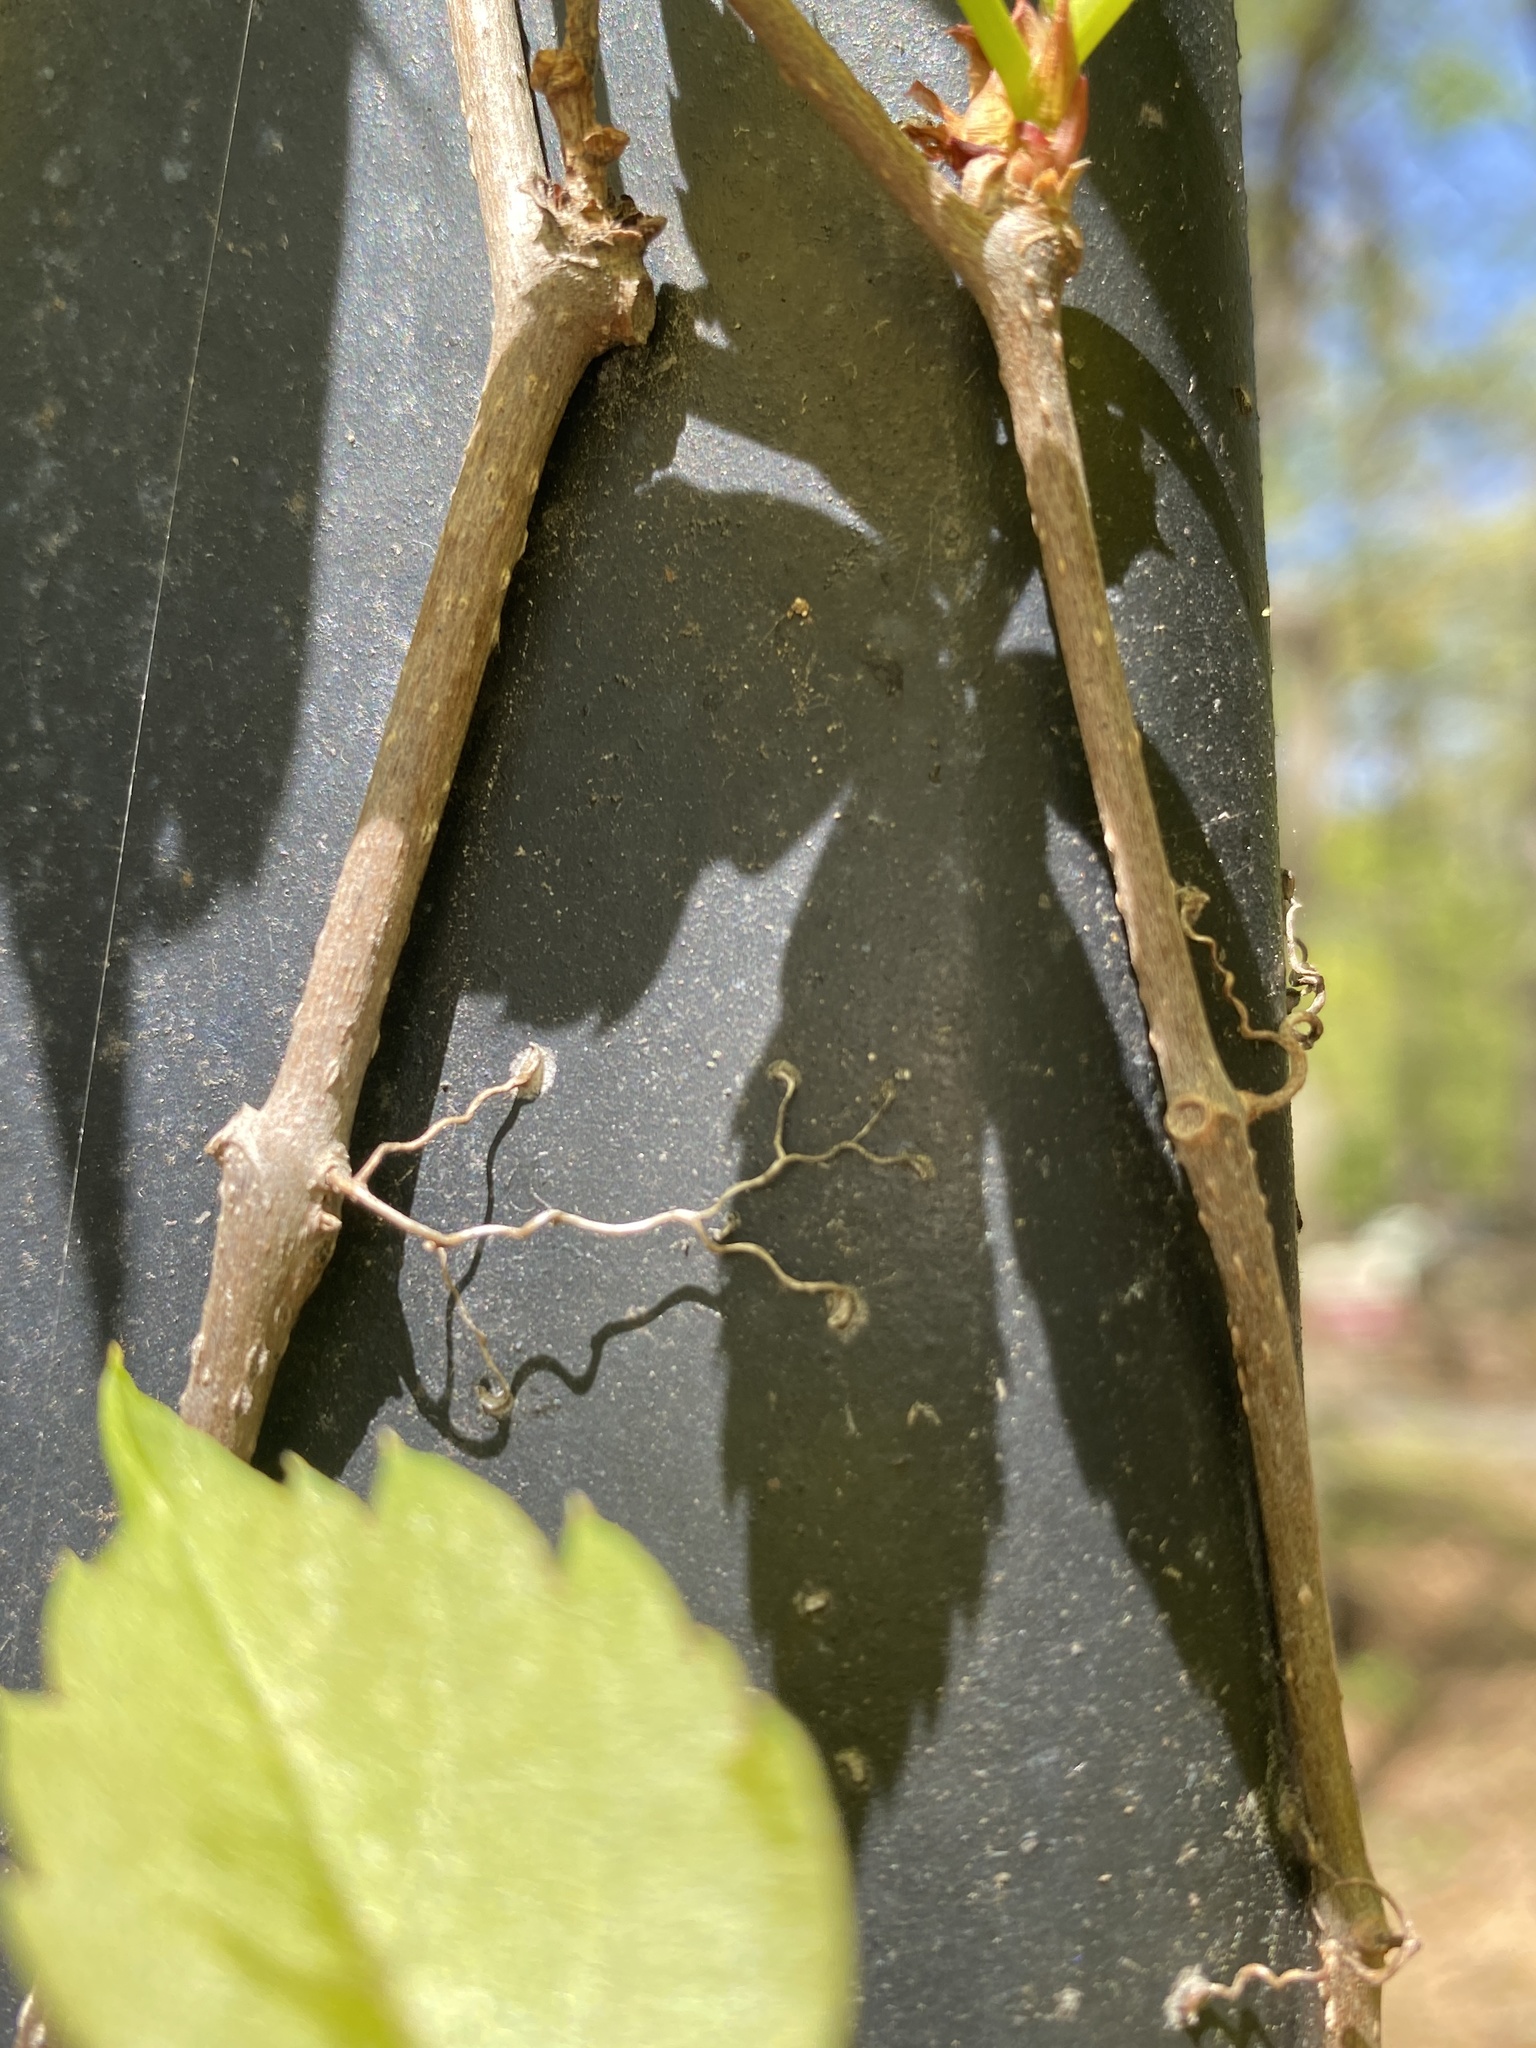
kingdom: Plantae
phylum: Tracheophyta
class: Magnoliopsida
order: Vitales
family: Vitaceae
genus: Parthenocissus
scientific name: Parthenocissus quinquefolia
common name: Virginia-creeper
